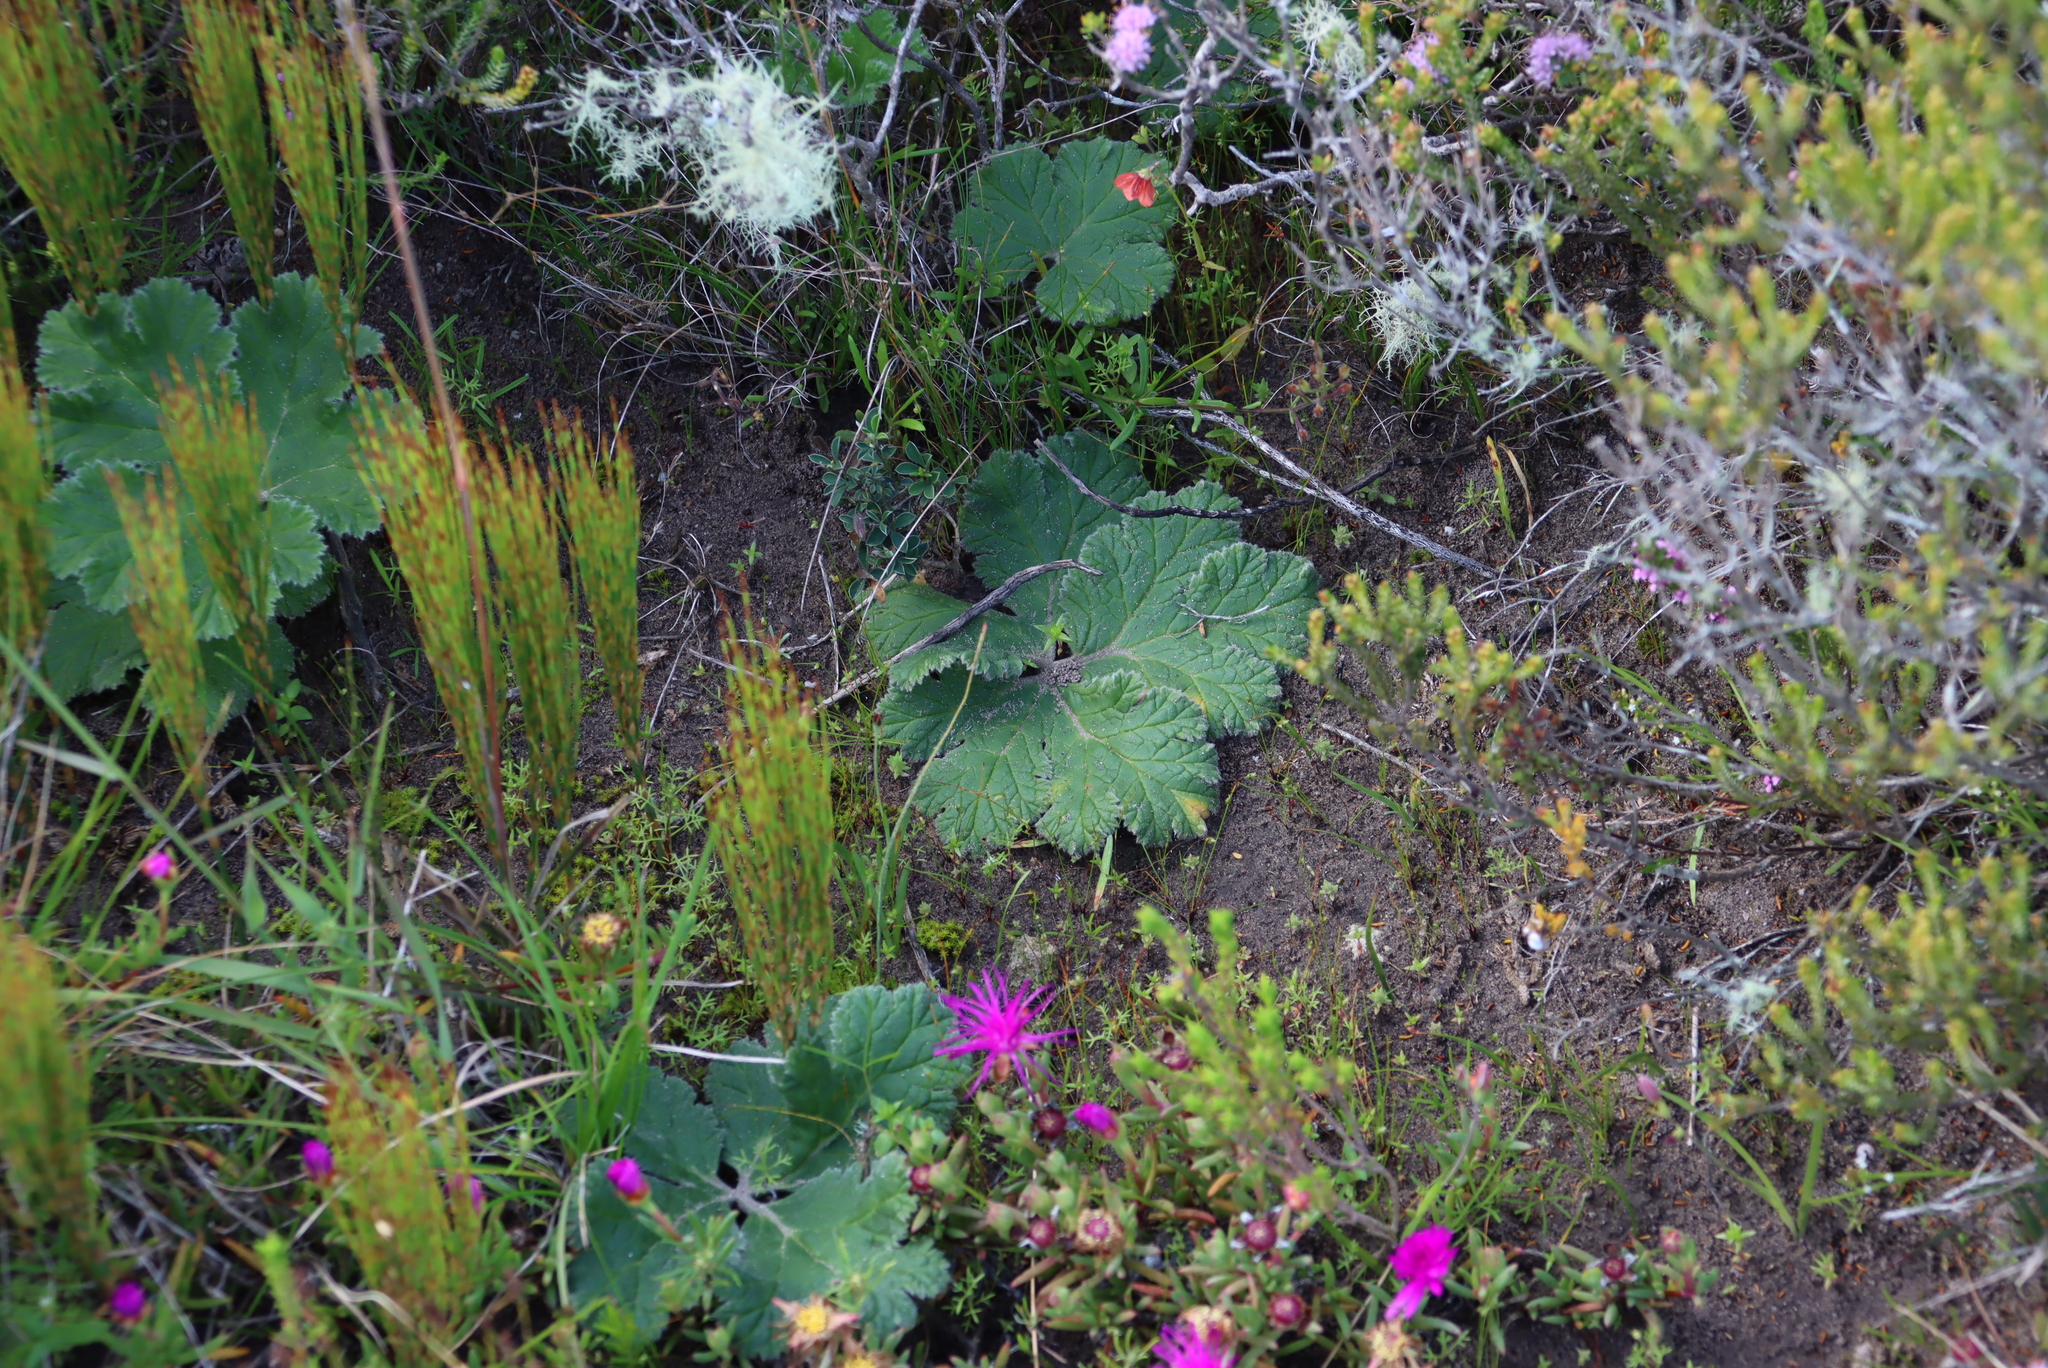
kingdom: Plantae
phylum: Tracheophyta
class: Magnoliopsida
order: Geraniales
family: Geraniaceae
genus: Pelargonium
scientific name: Pelargonium lobatum
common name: Vine-leaf pelargonium
